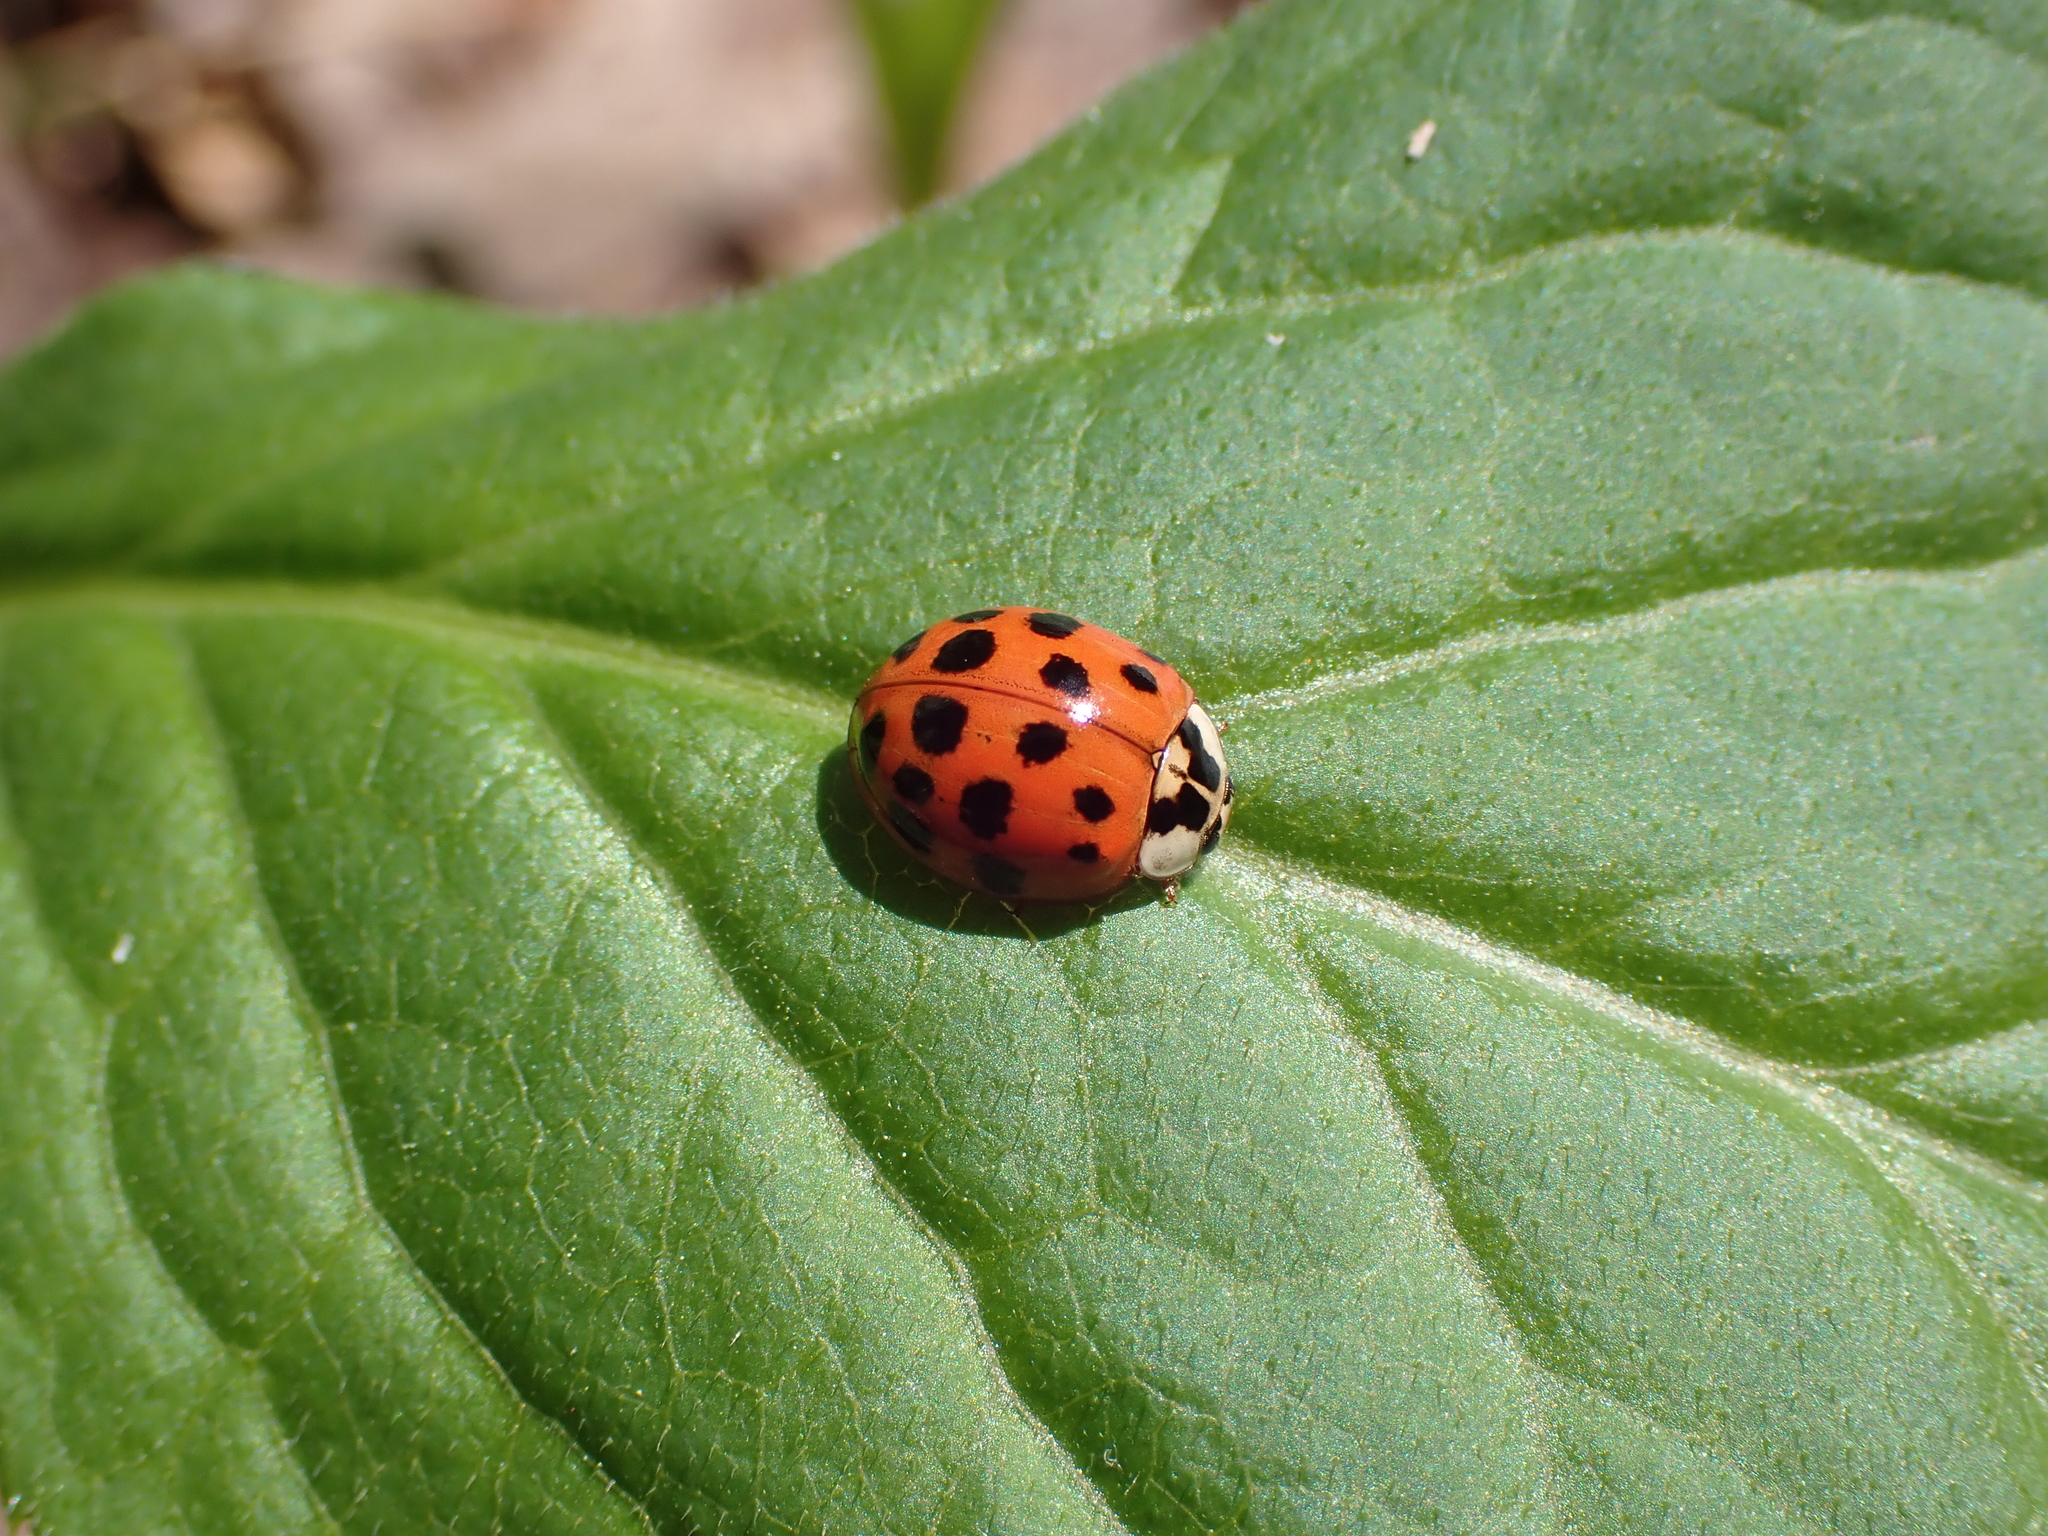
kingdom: Animalia
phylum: Arthropoda
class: Insecta
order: Coleoptera
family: Coccinellidae
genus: Harmonia
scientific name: Harmonia axyridis
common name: Harlequin ladybird
